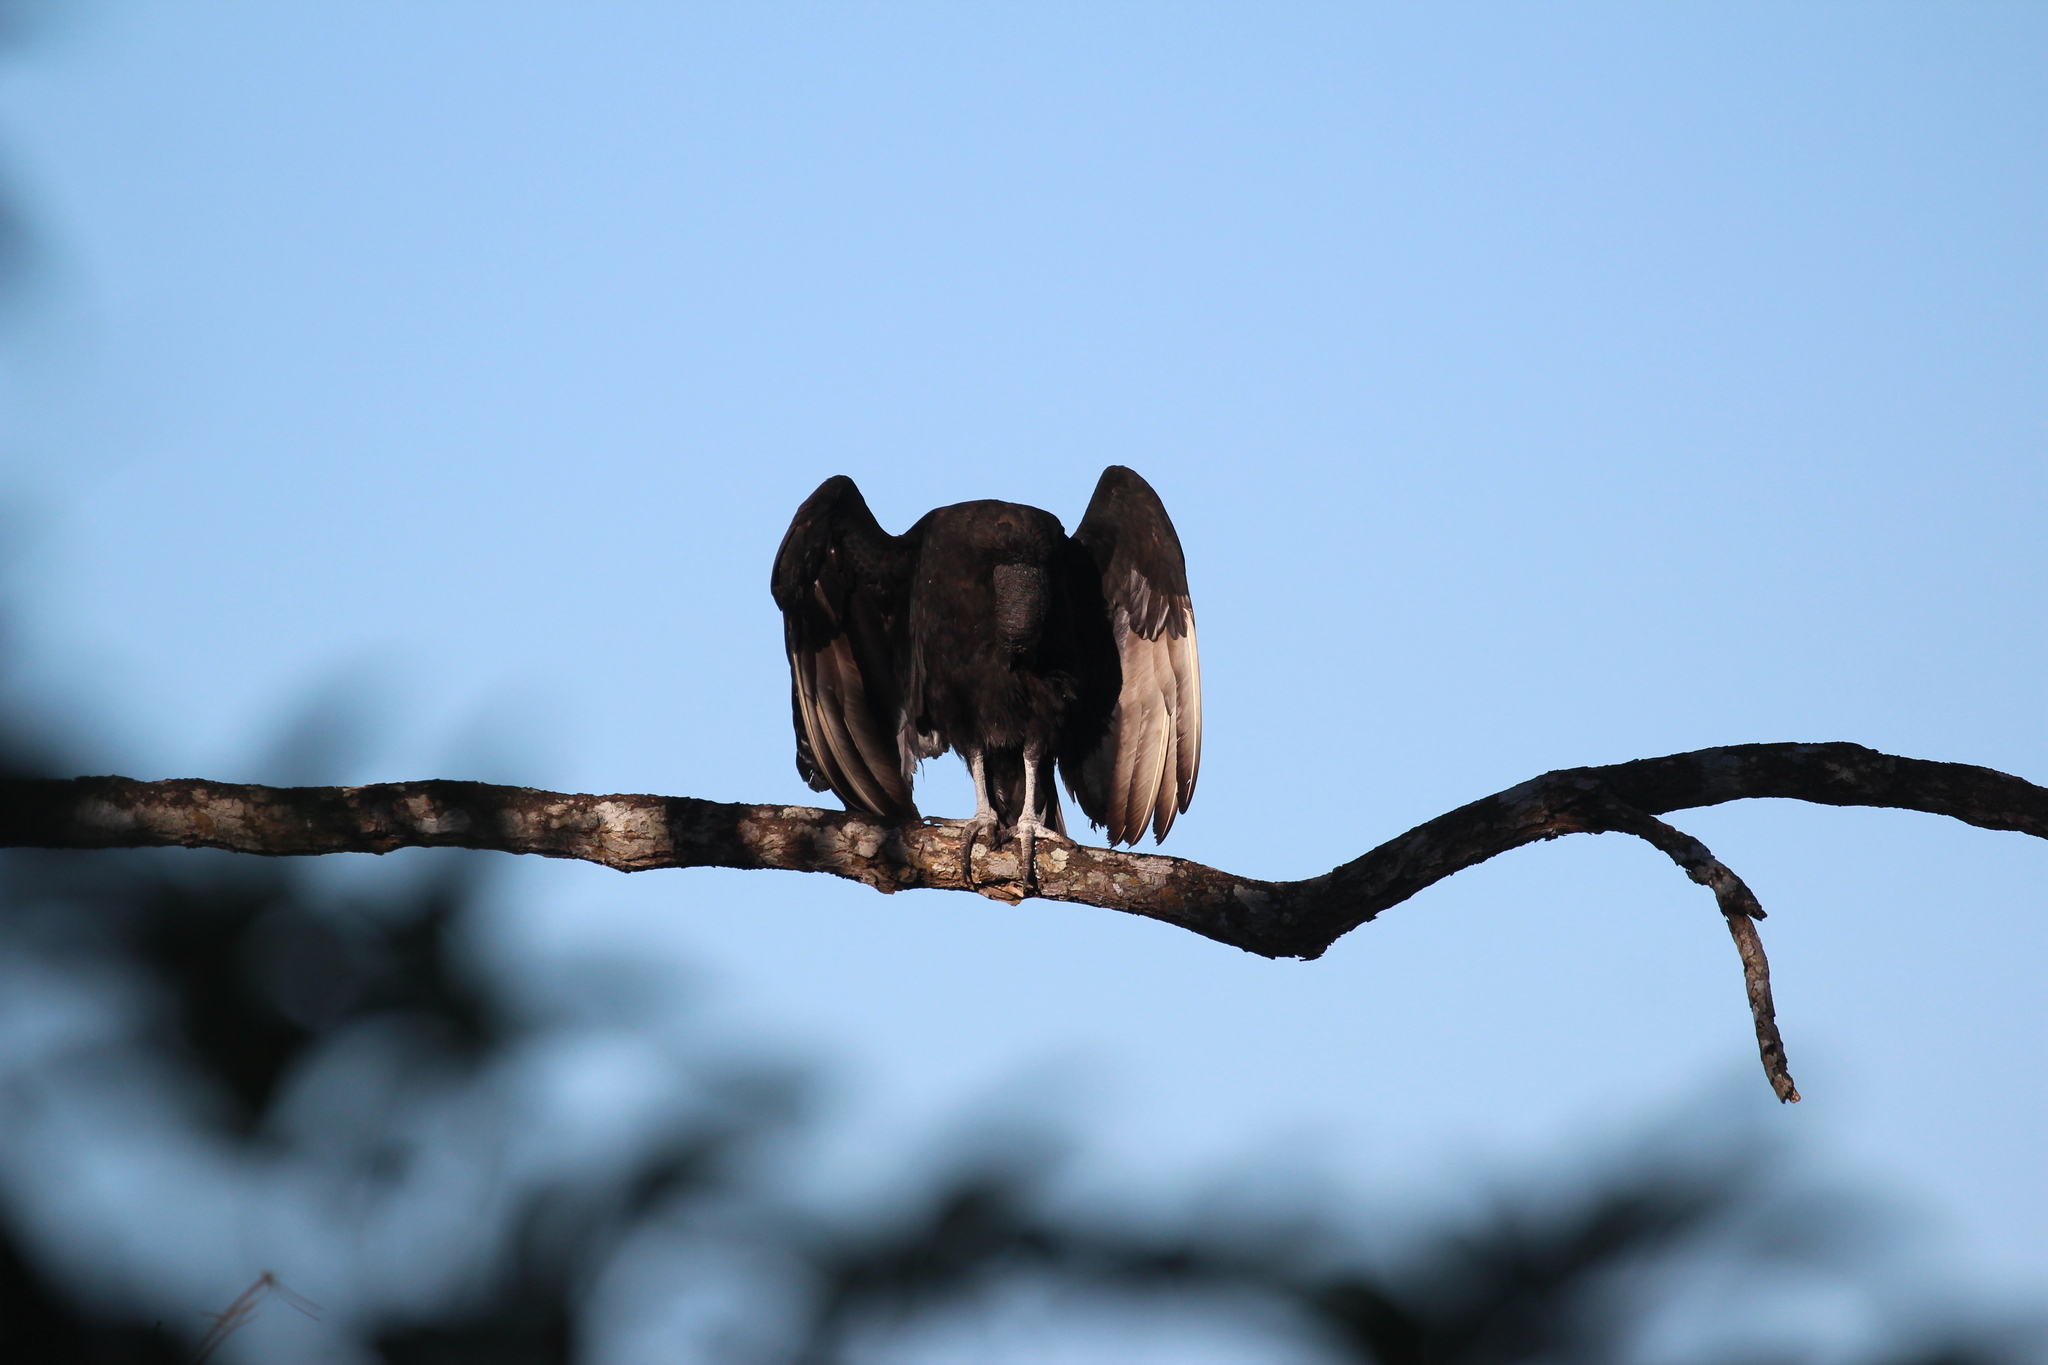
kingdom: Animalia
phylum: Chordata
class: Aves
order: Accipitriformes
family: Cathartidae
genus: Coragyps
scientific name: Coragyps atratus
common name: Black vulture
